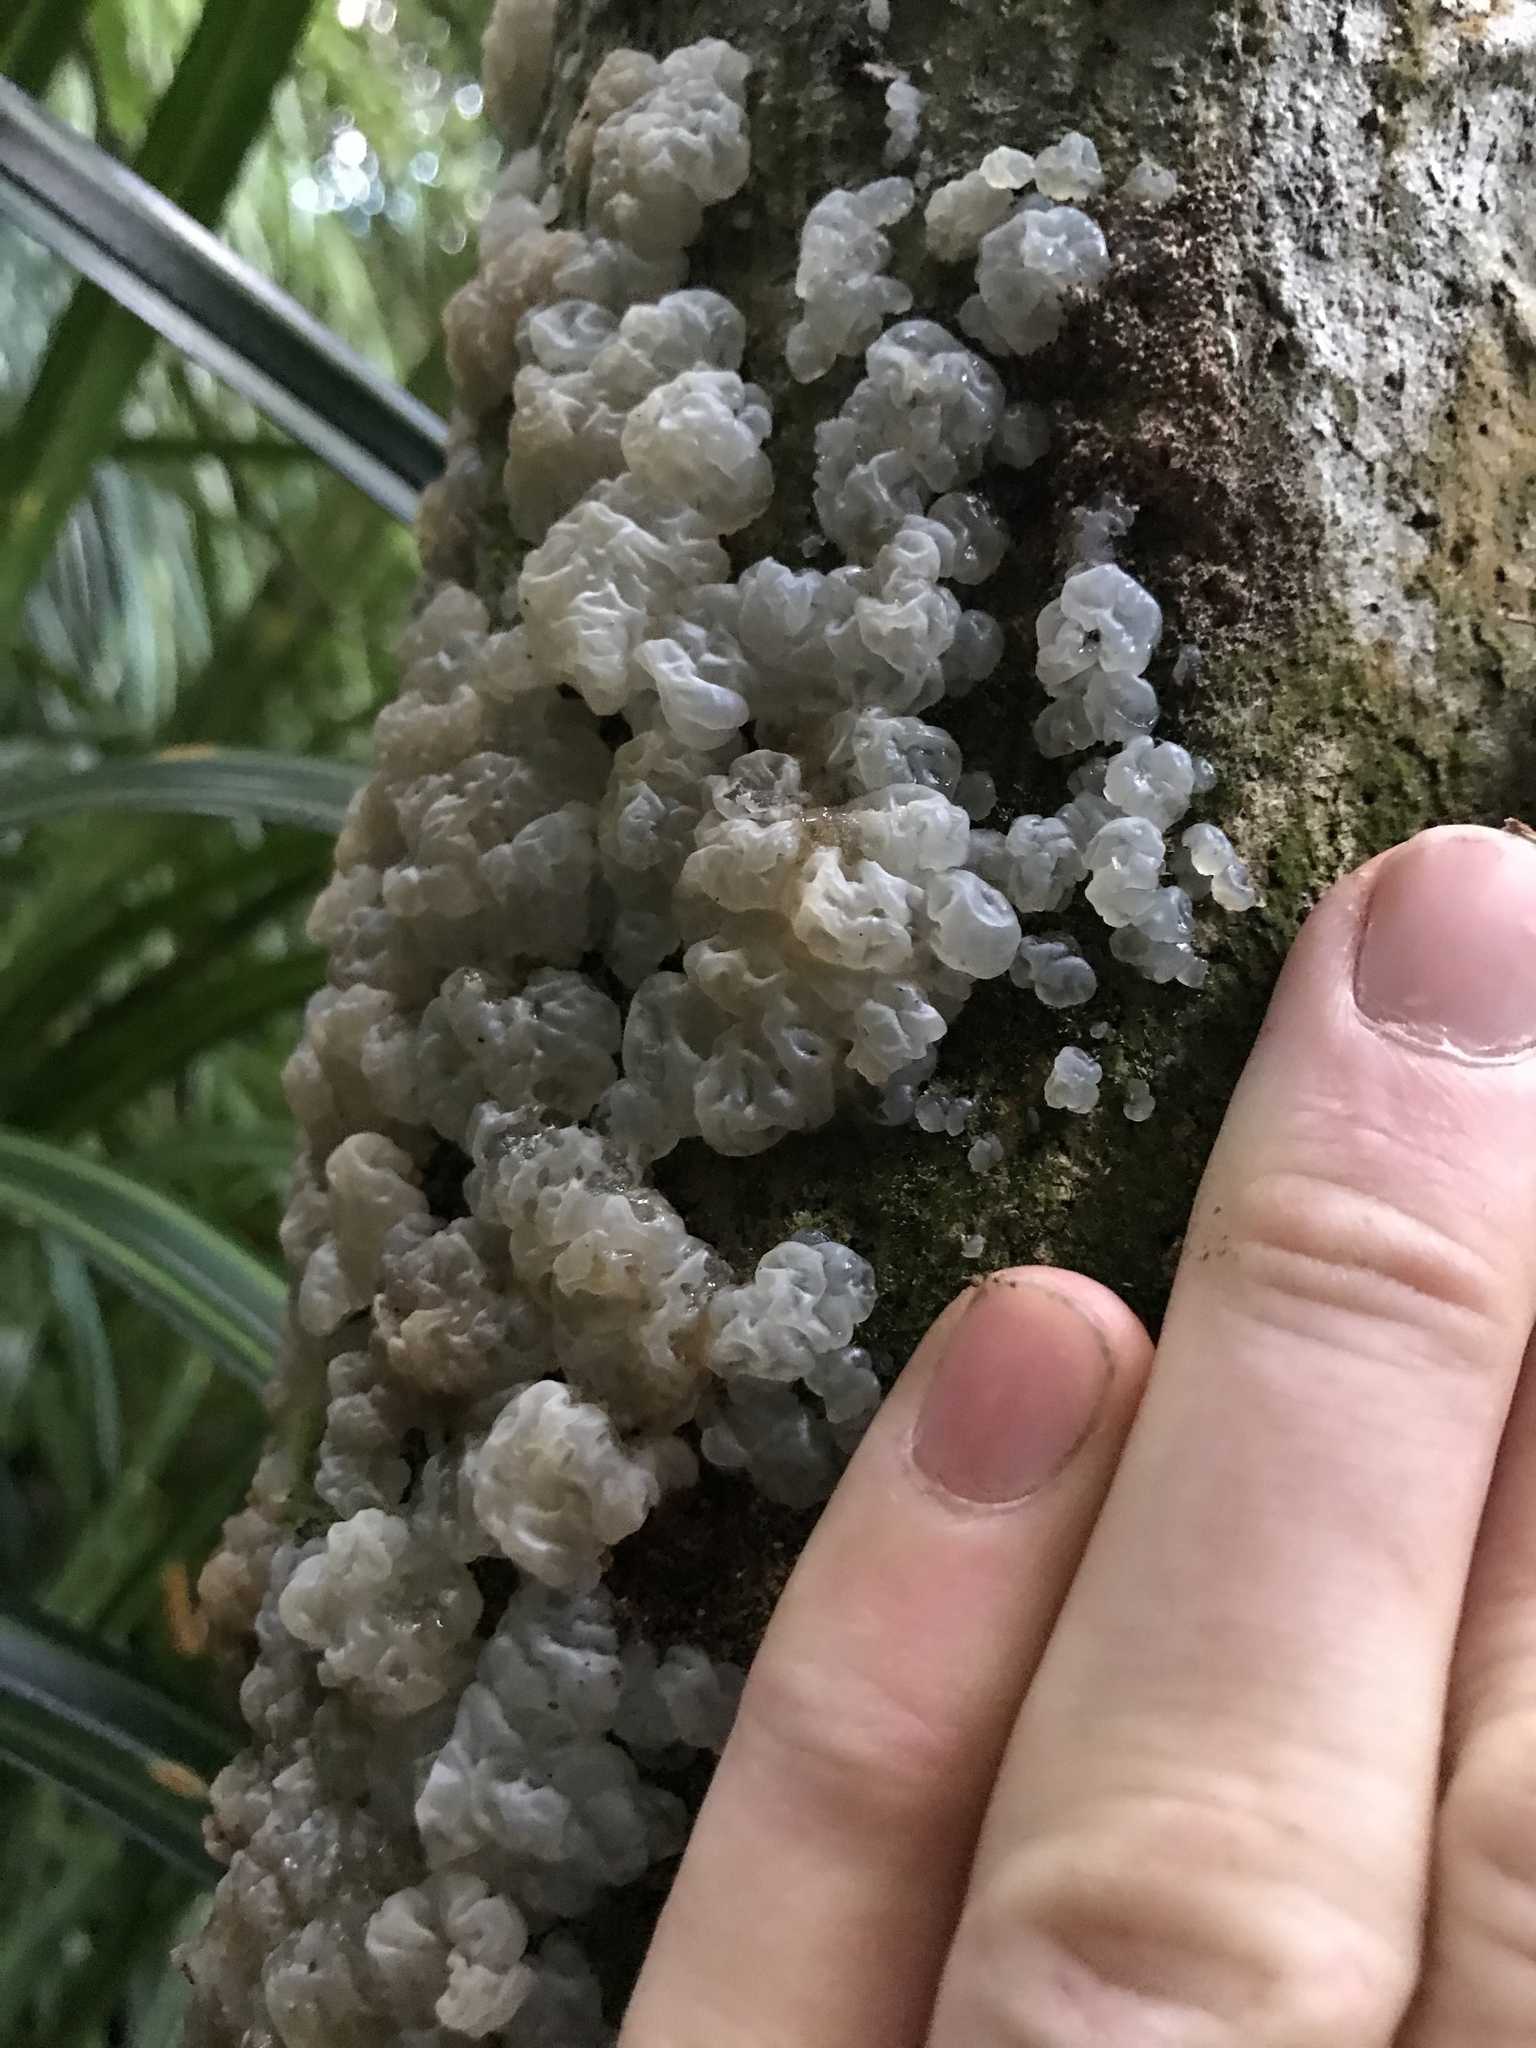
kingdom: Fungi
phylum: Basidiomycota
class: Agaricomycetes
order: Auriculariales
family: Auriculariaceae
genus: Tremellochaete
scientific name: Tremellochaete
